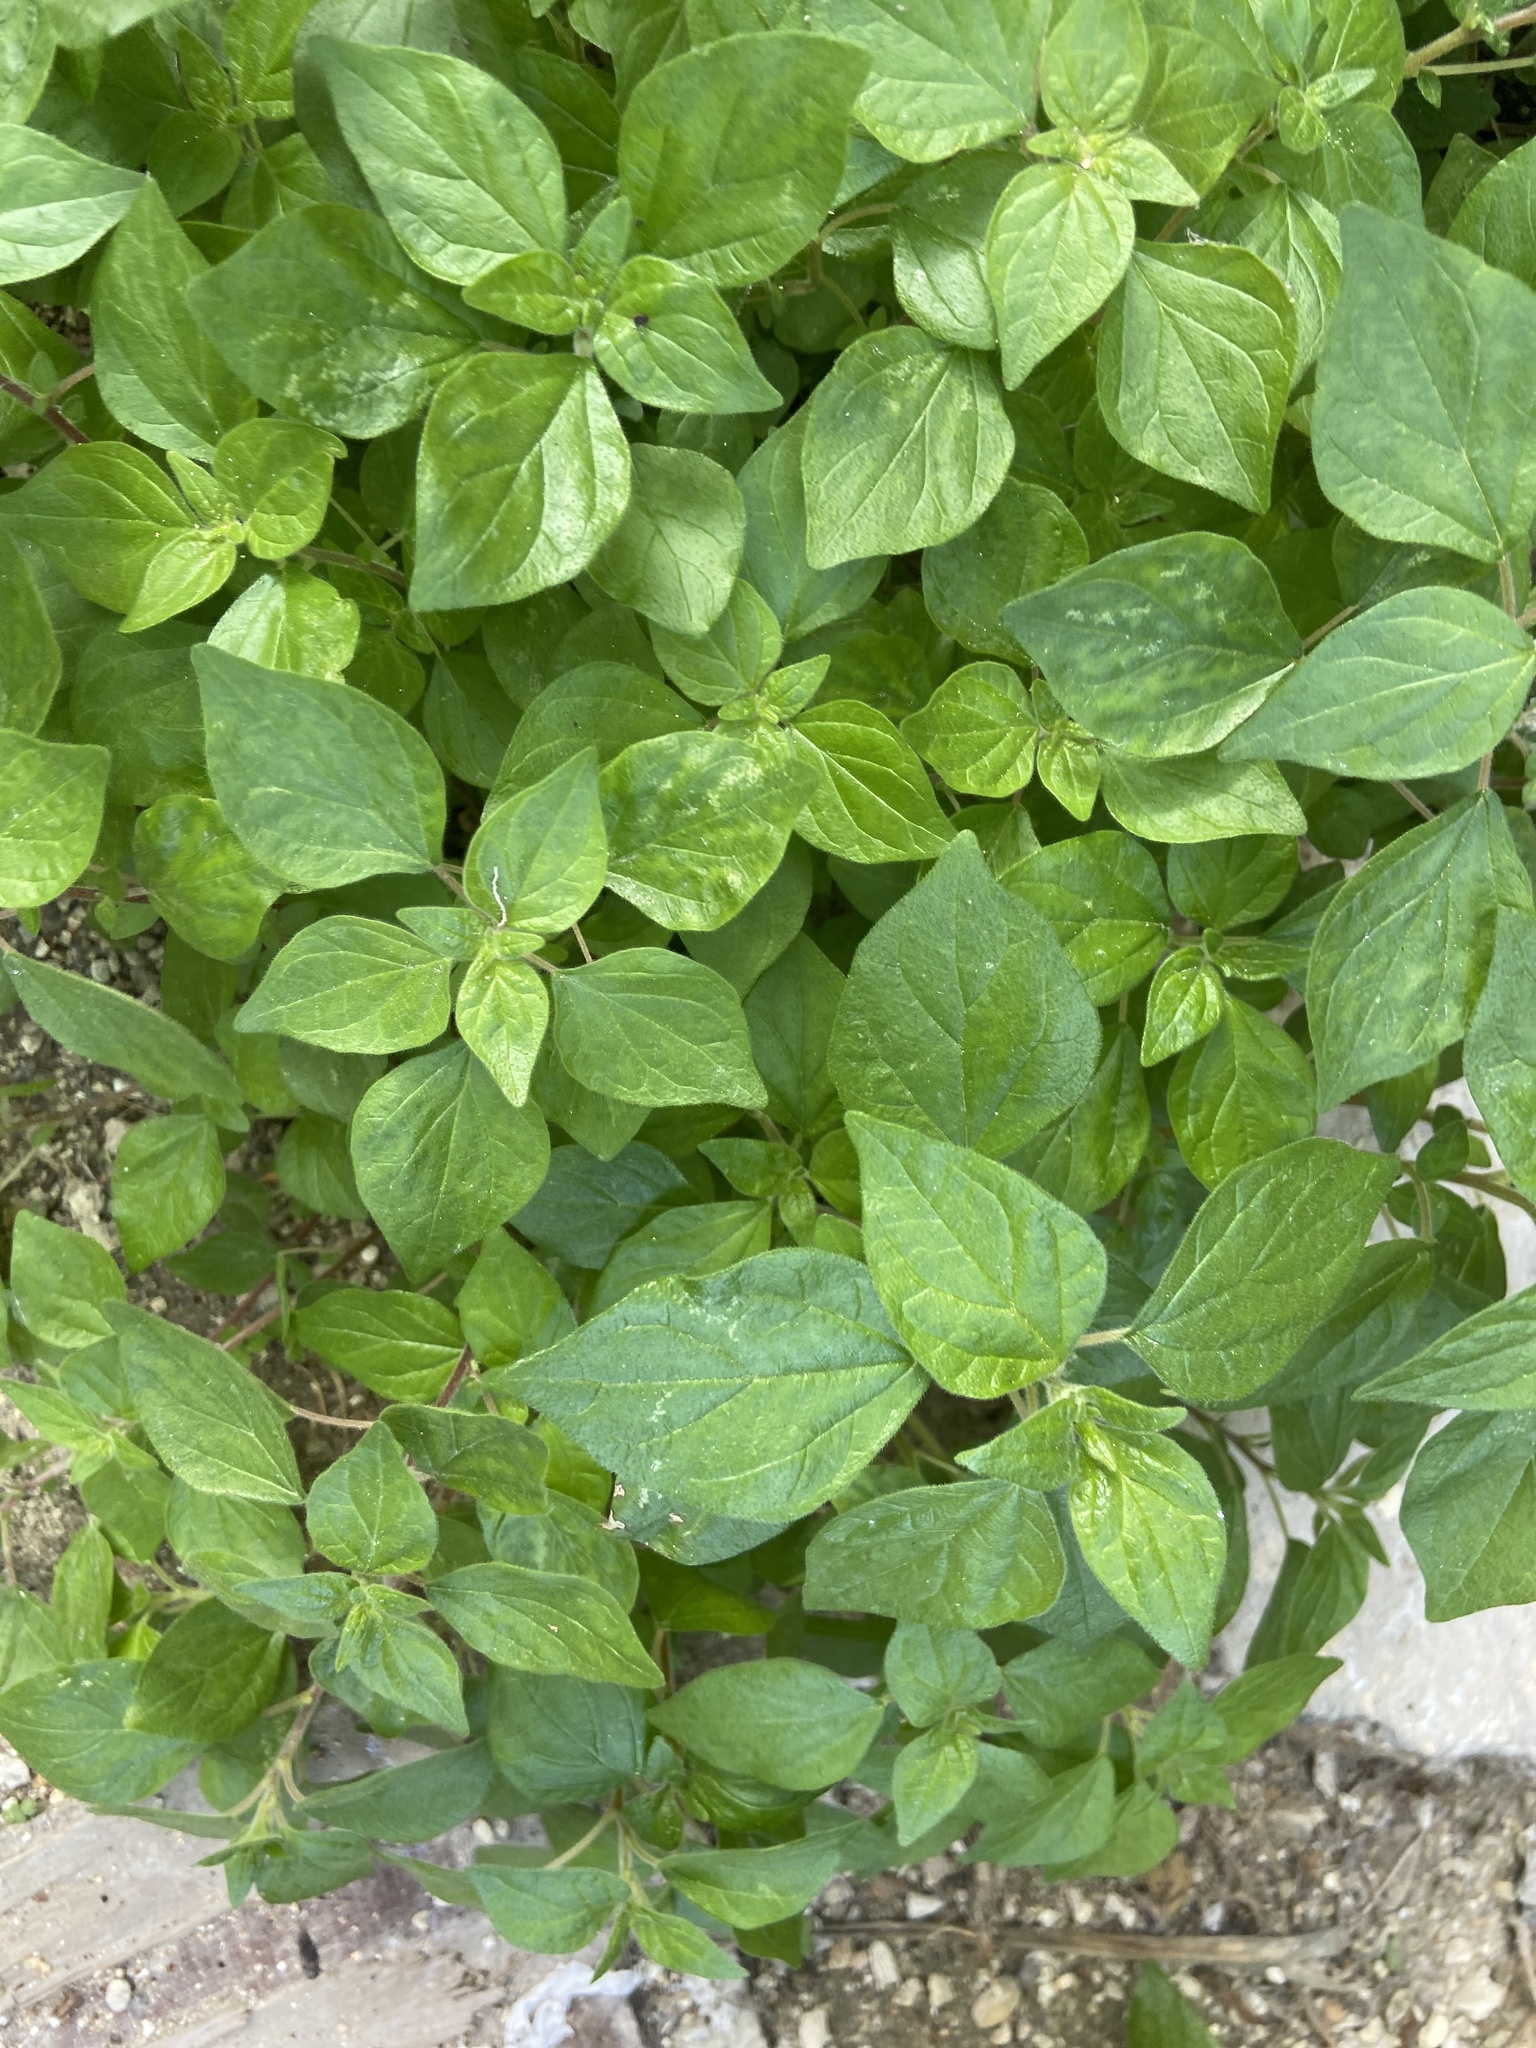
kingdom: Plantae
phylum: Tracheophyta
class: Magnoliopsida
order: Rosales
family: Urticaceae
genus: Parietaria
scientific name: Parietaria judaica
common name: Pellitory-of-the-wall
